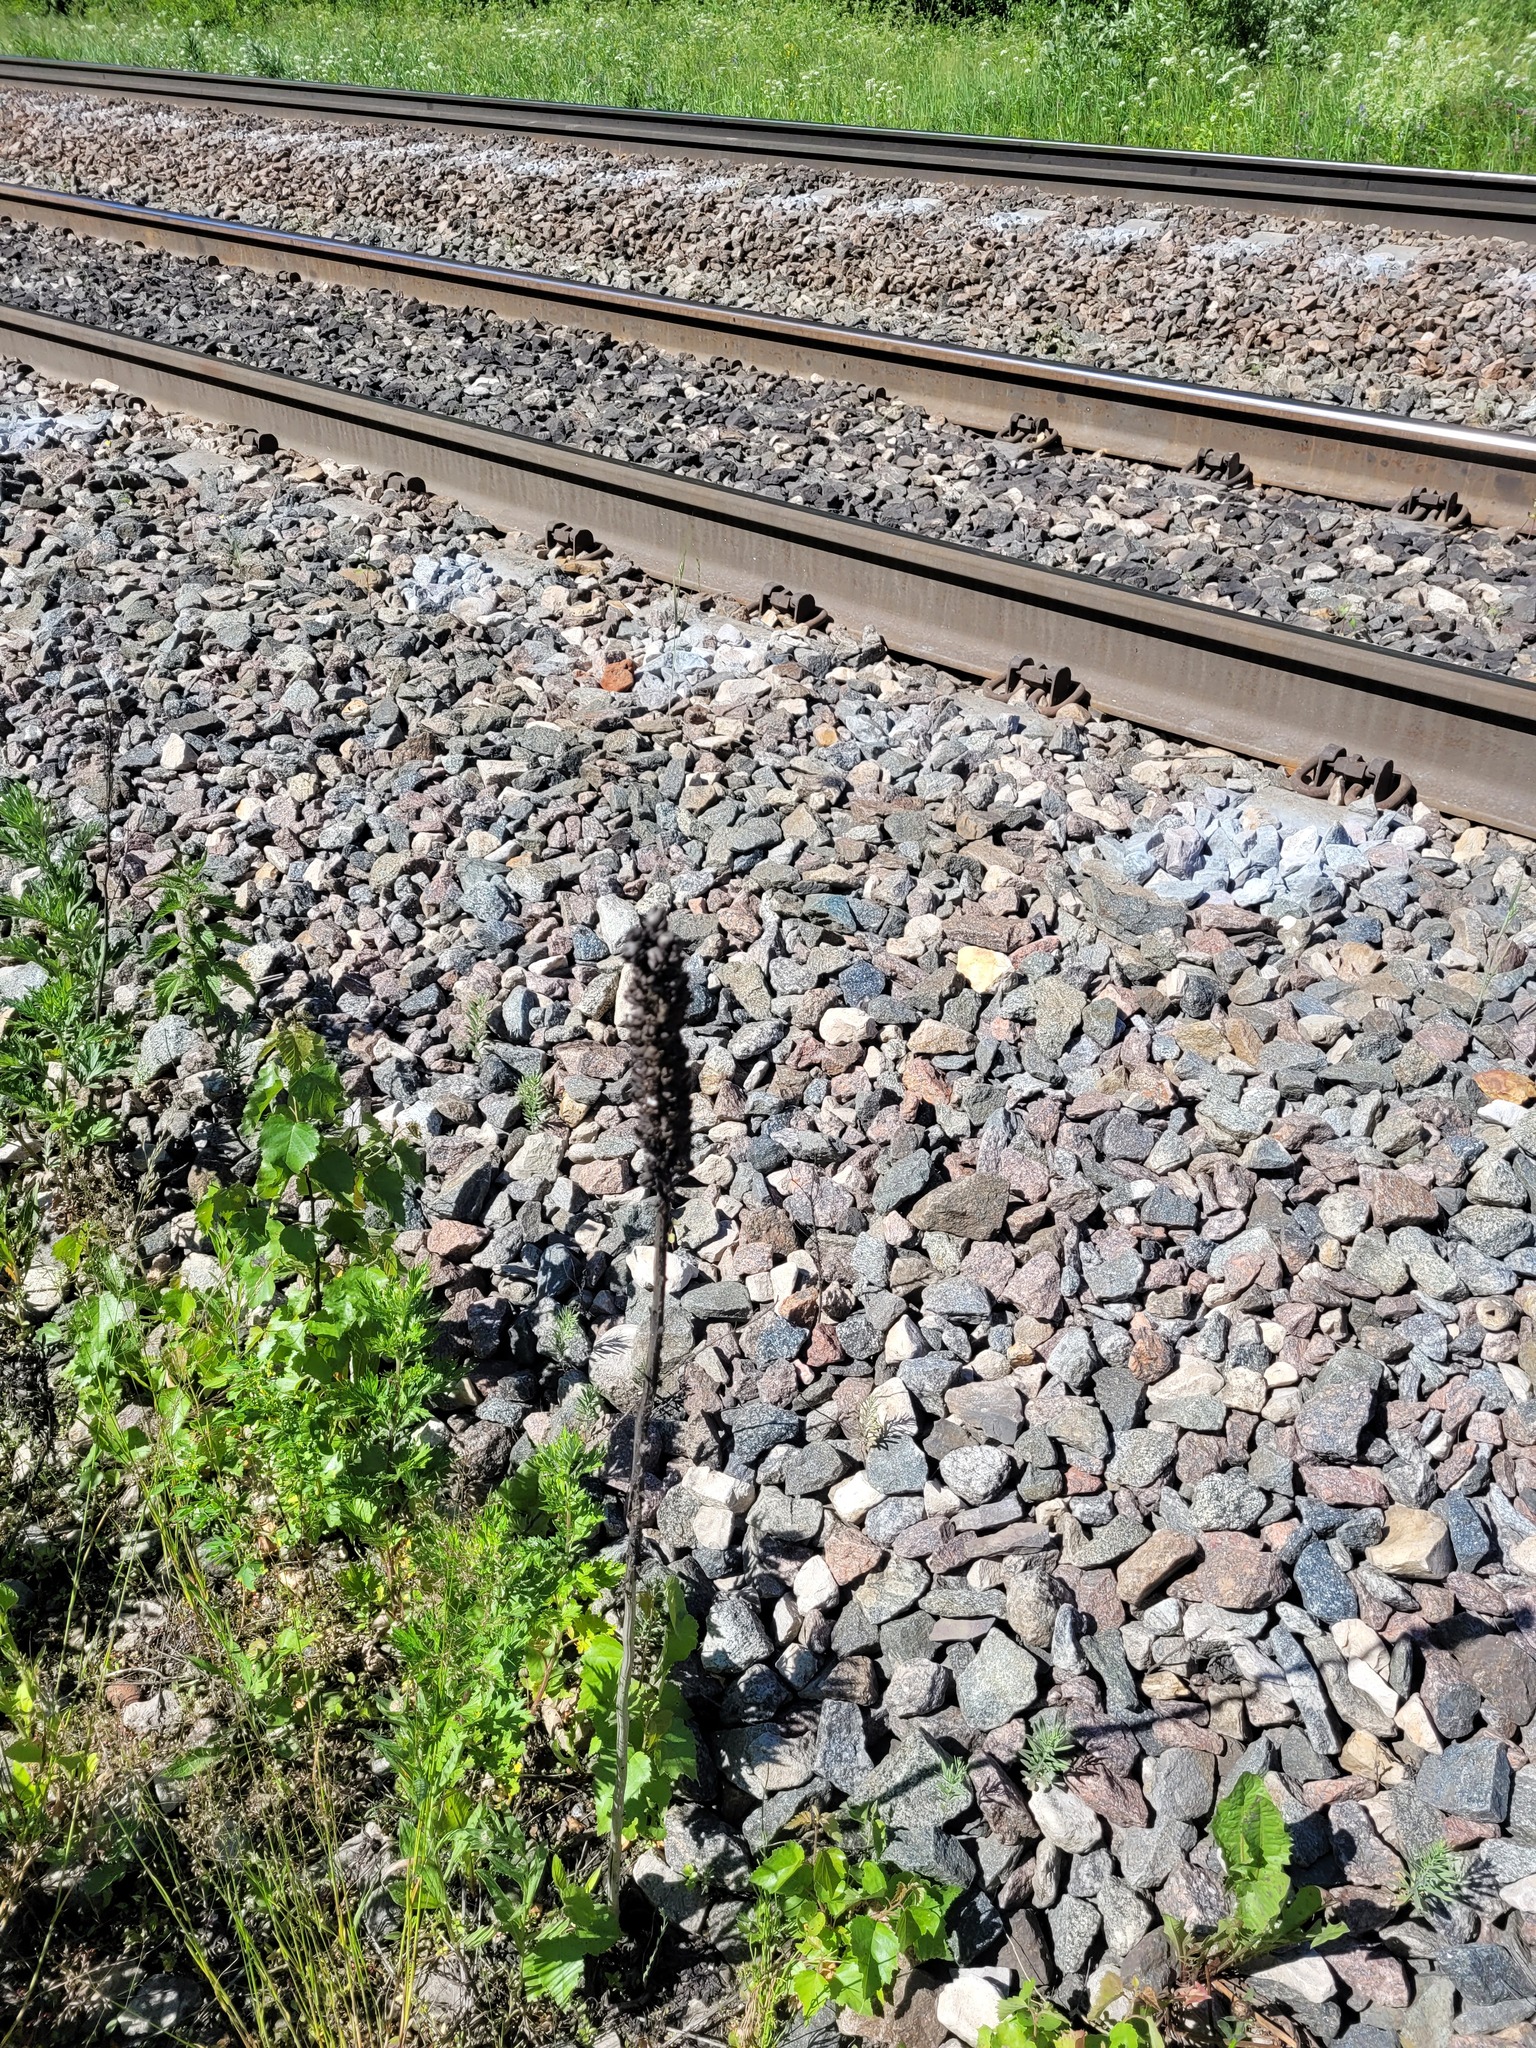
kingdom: Plantae
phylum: Tracheophyta
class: Magnoliopsida
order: Lamiales
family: Scrophulariaceae
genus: Verbascum
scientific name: Verbascum thapsus
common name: Common mullein
